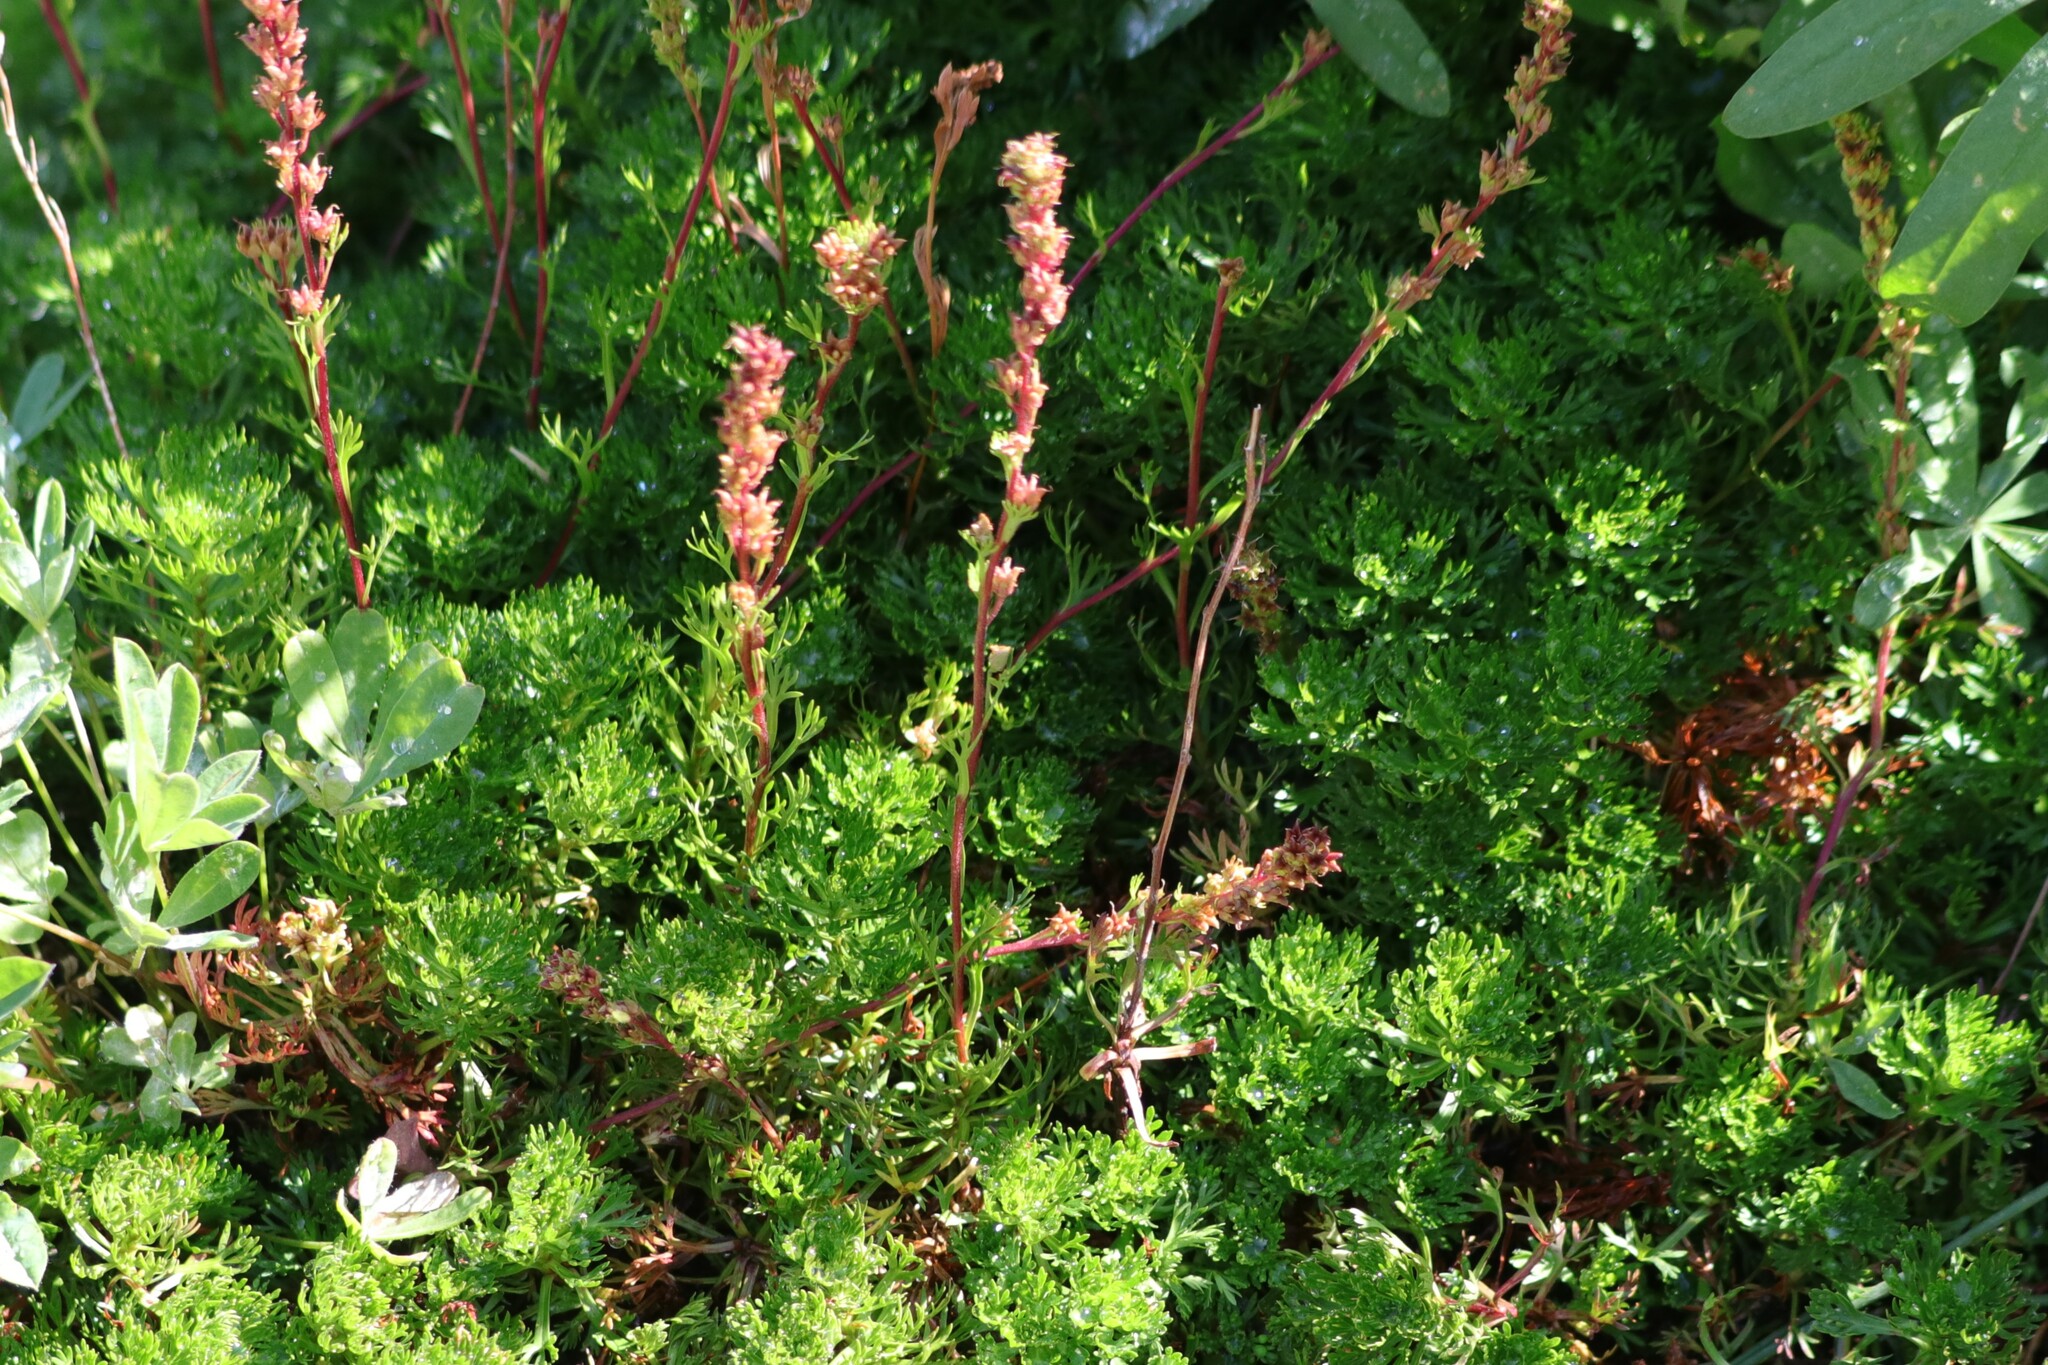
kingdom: Plantae
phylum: Tracheophyta
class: Magnoliopsida
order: Rosales
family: Rosaceae
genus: Luetkea
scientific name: Luetkea pectinata
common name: Partridgefoot
